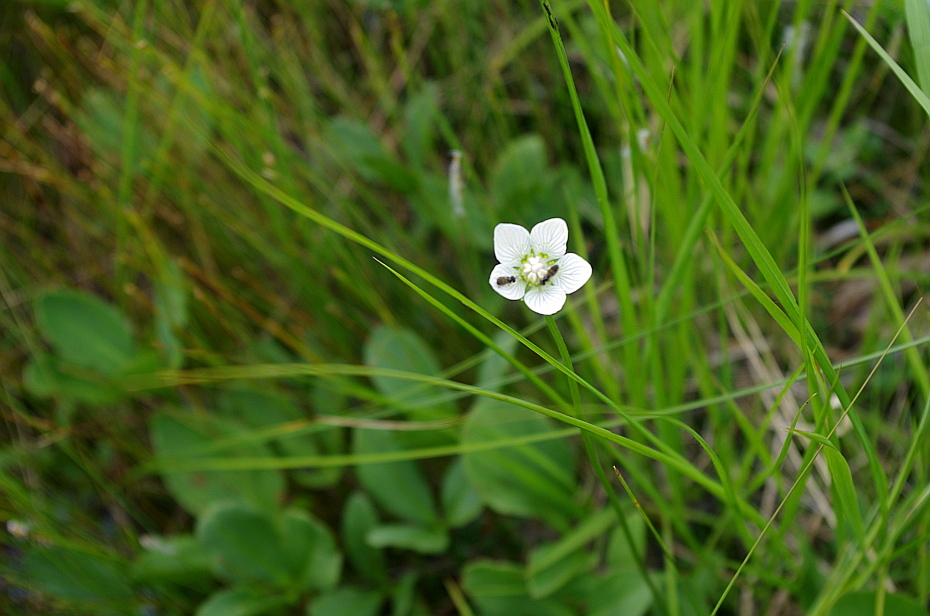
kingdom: Plantae
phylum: Tracheophyta
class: Magnoliopsida
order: Celastrales
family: Parnassiaceae
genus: Parnassia
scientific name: Parnassia palustris
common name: Grass-of-parnassus
